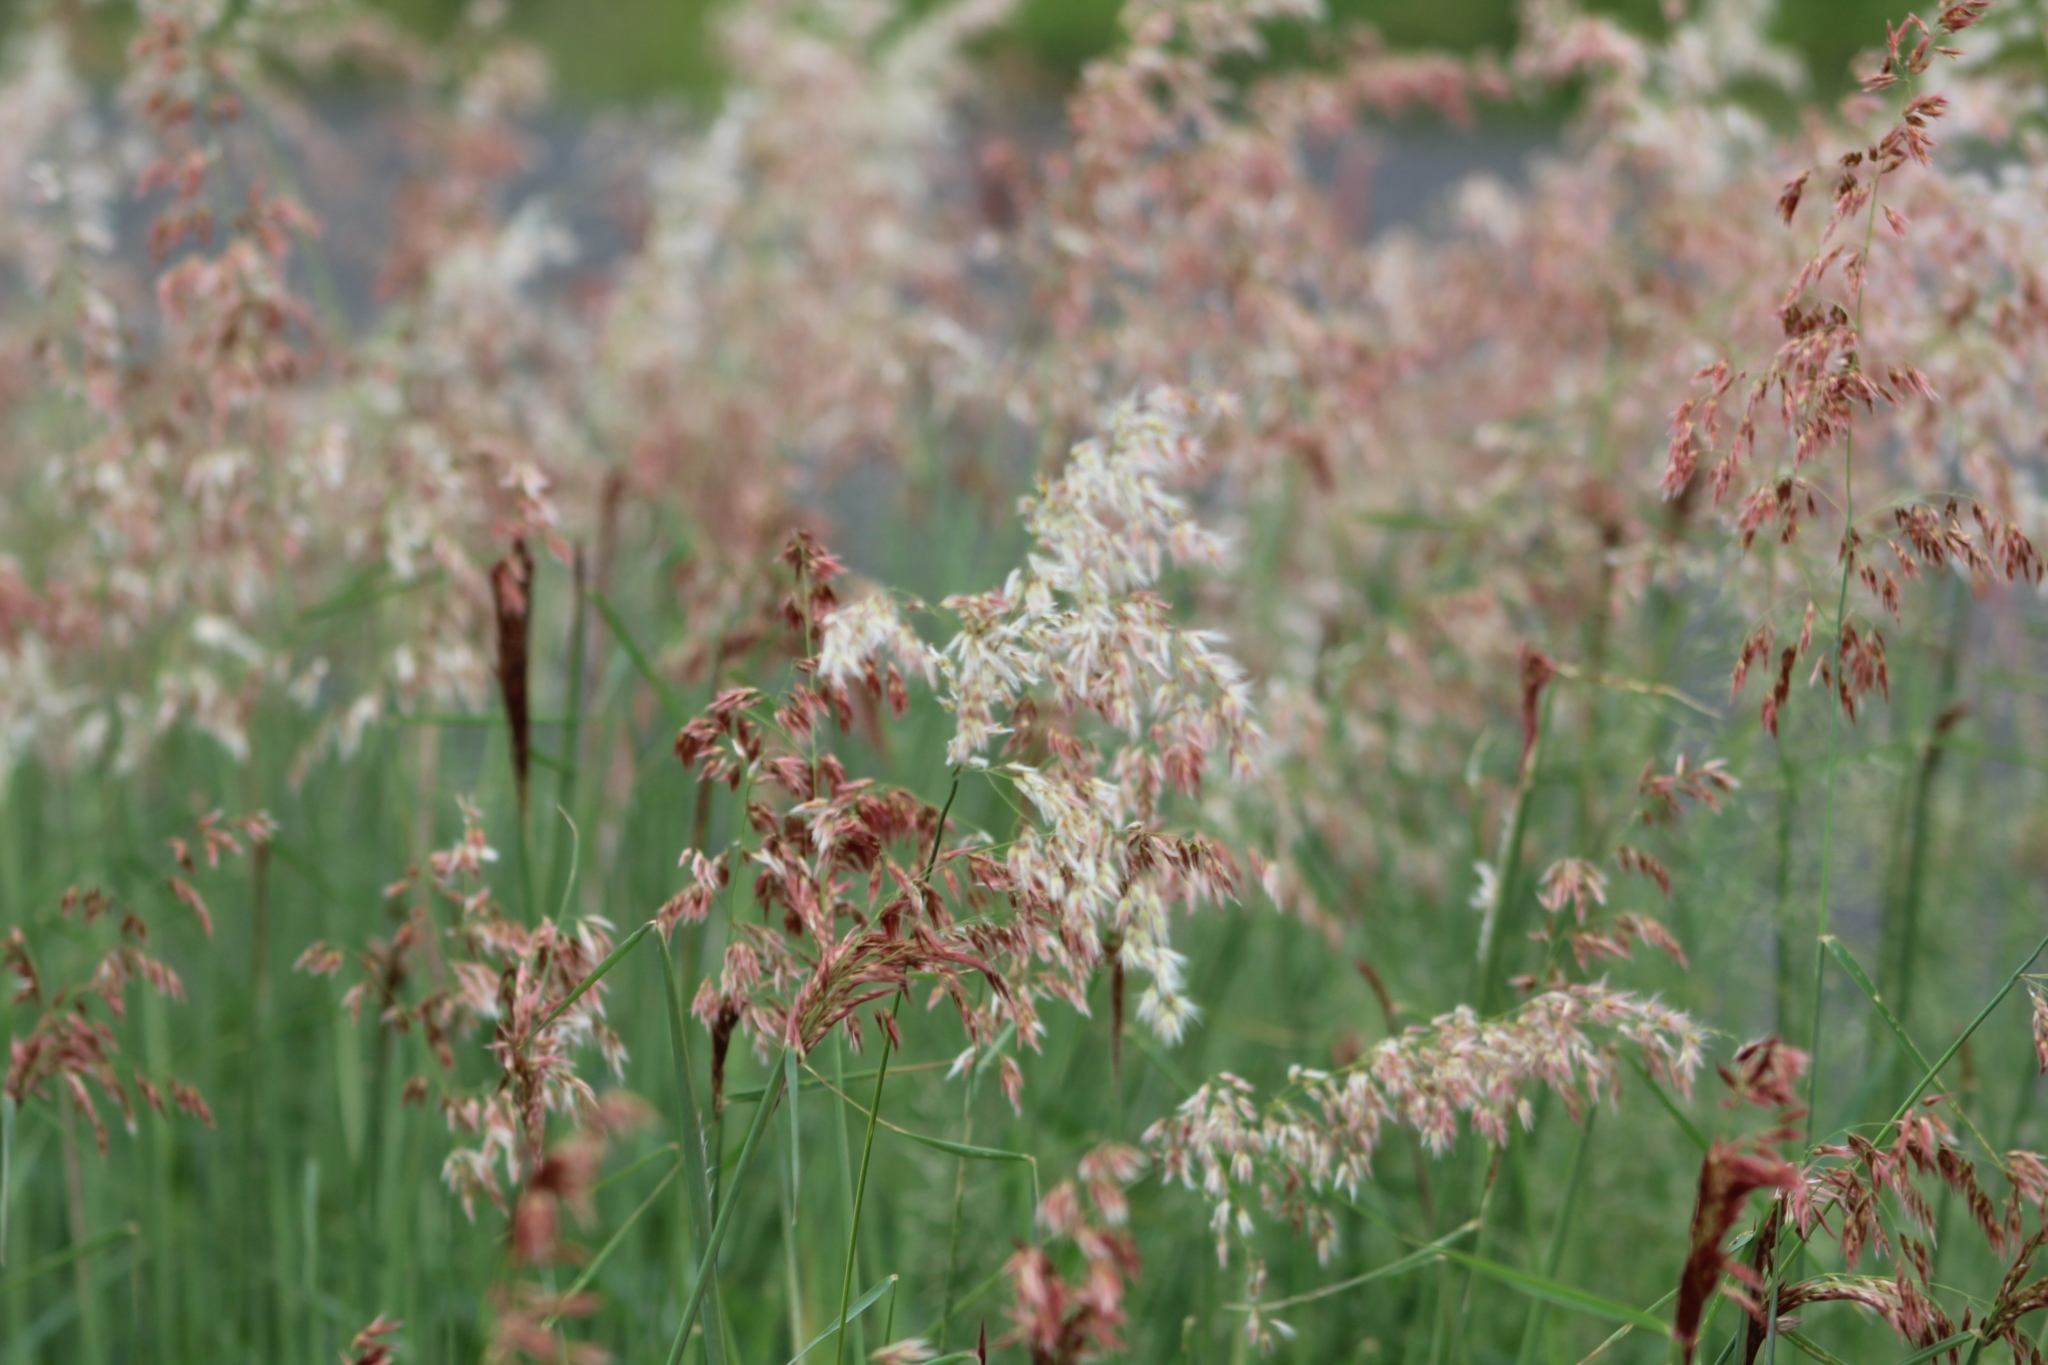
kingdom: Plantae
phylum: Tracheophyta
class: Liliopsida
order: Poales
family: Poaceae
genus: Melinis
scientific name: Melinis repens
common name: Rose natal grass
